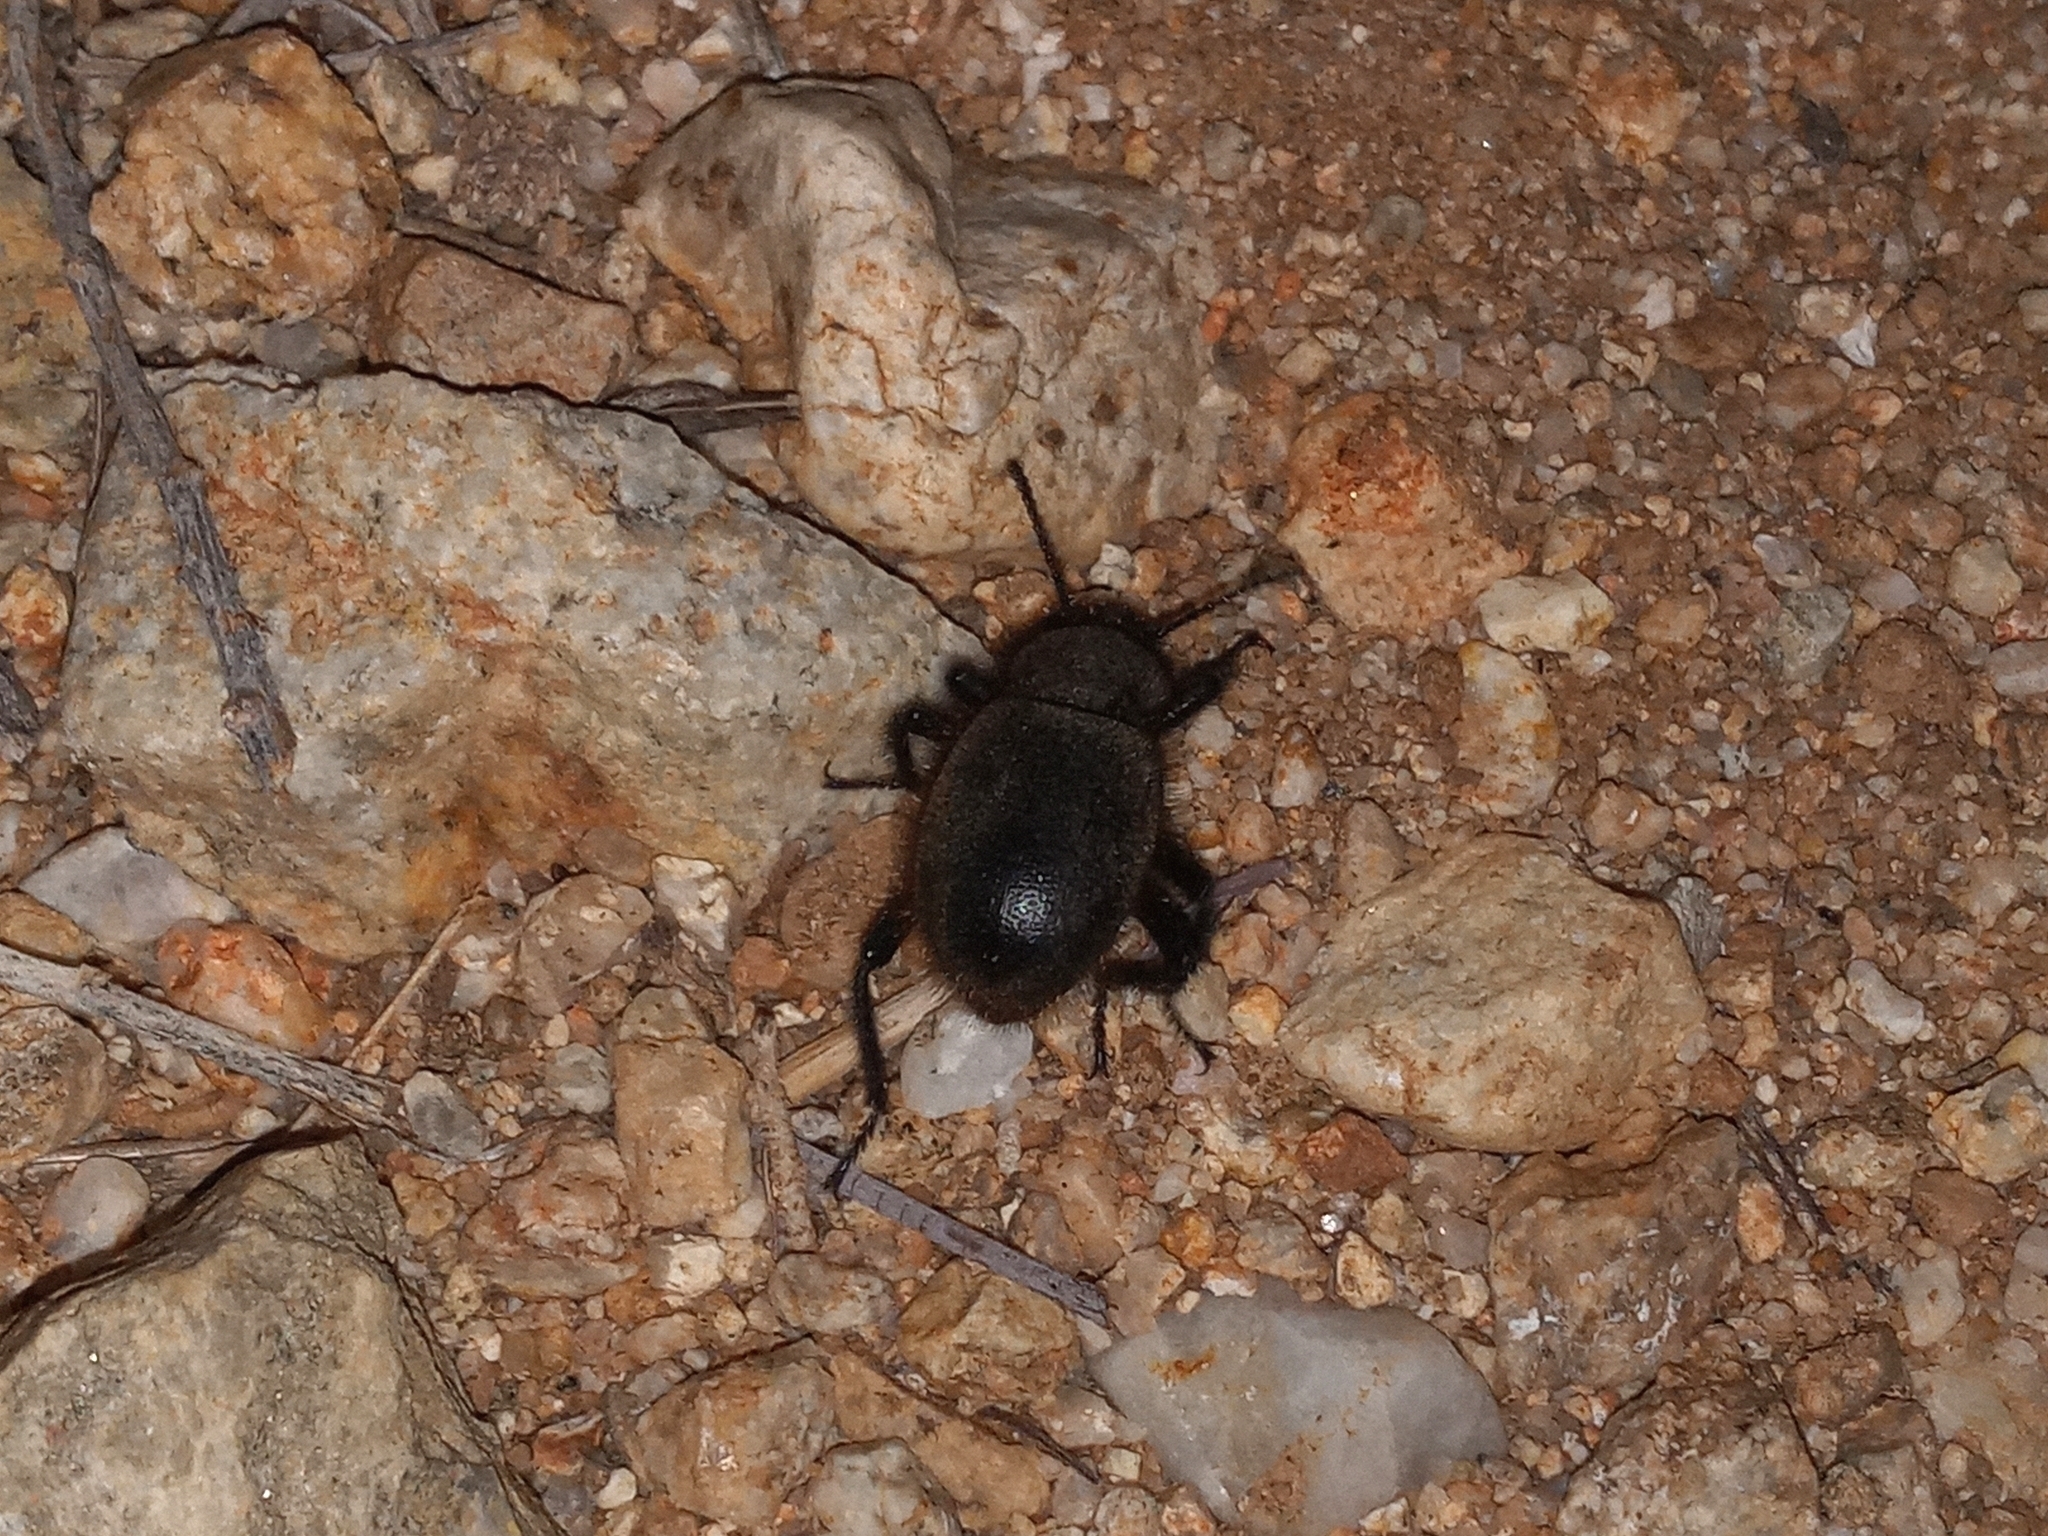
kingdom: Animalia
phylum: Arthropoda
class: Insecta
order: Coleoptera
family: Tenebrionidae
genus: Eleodes
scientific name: Eleodes osculans
